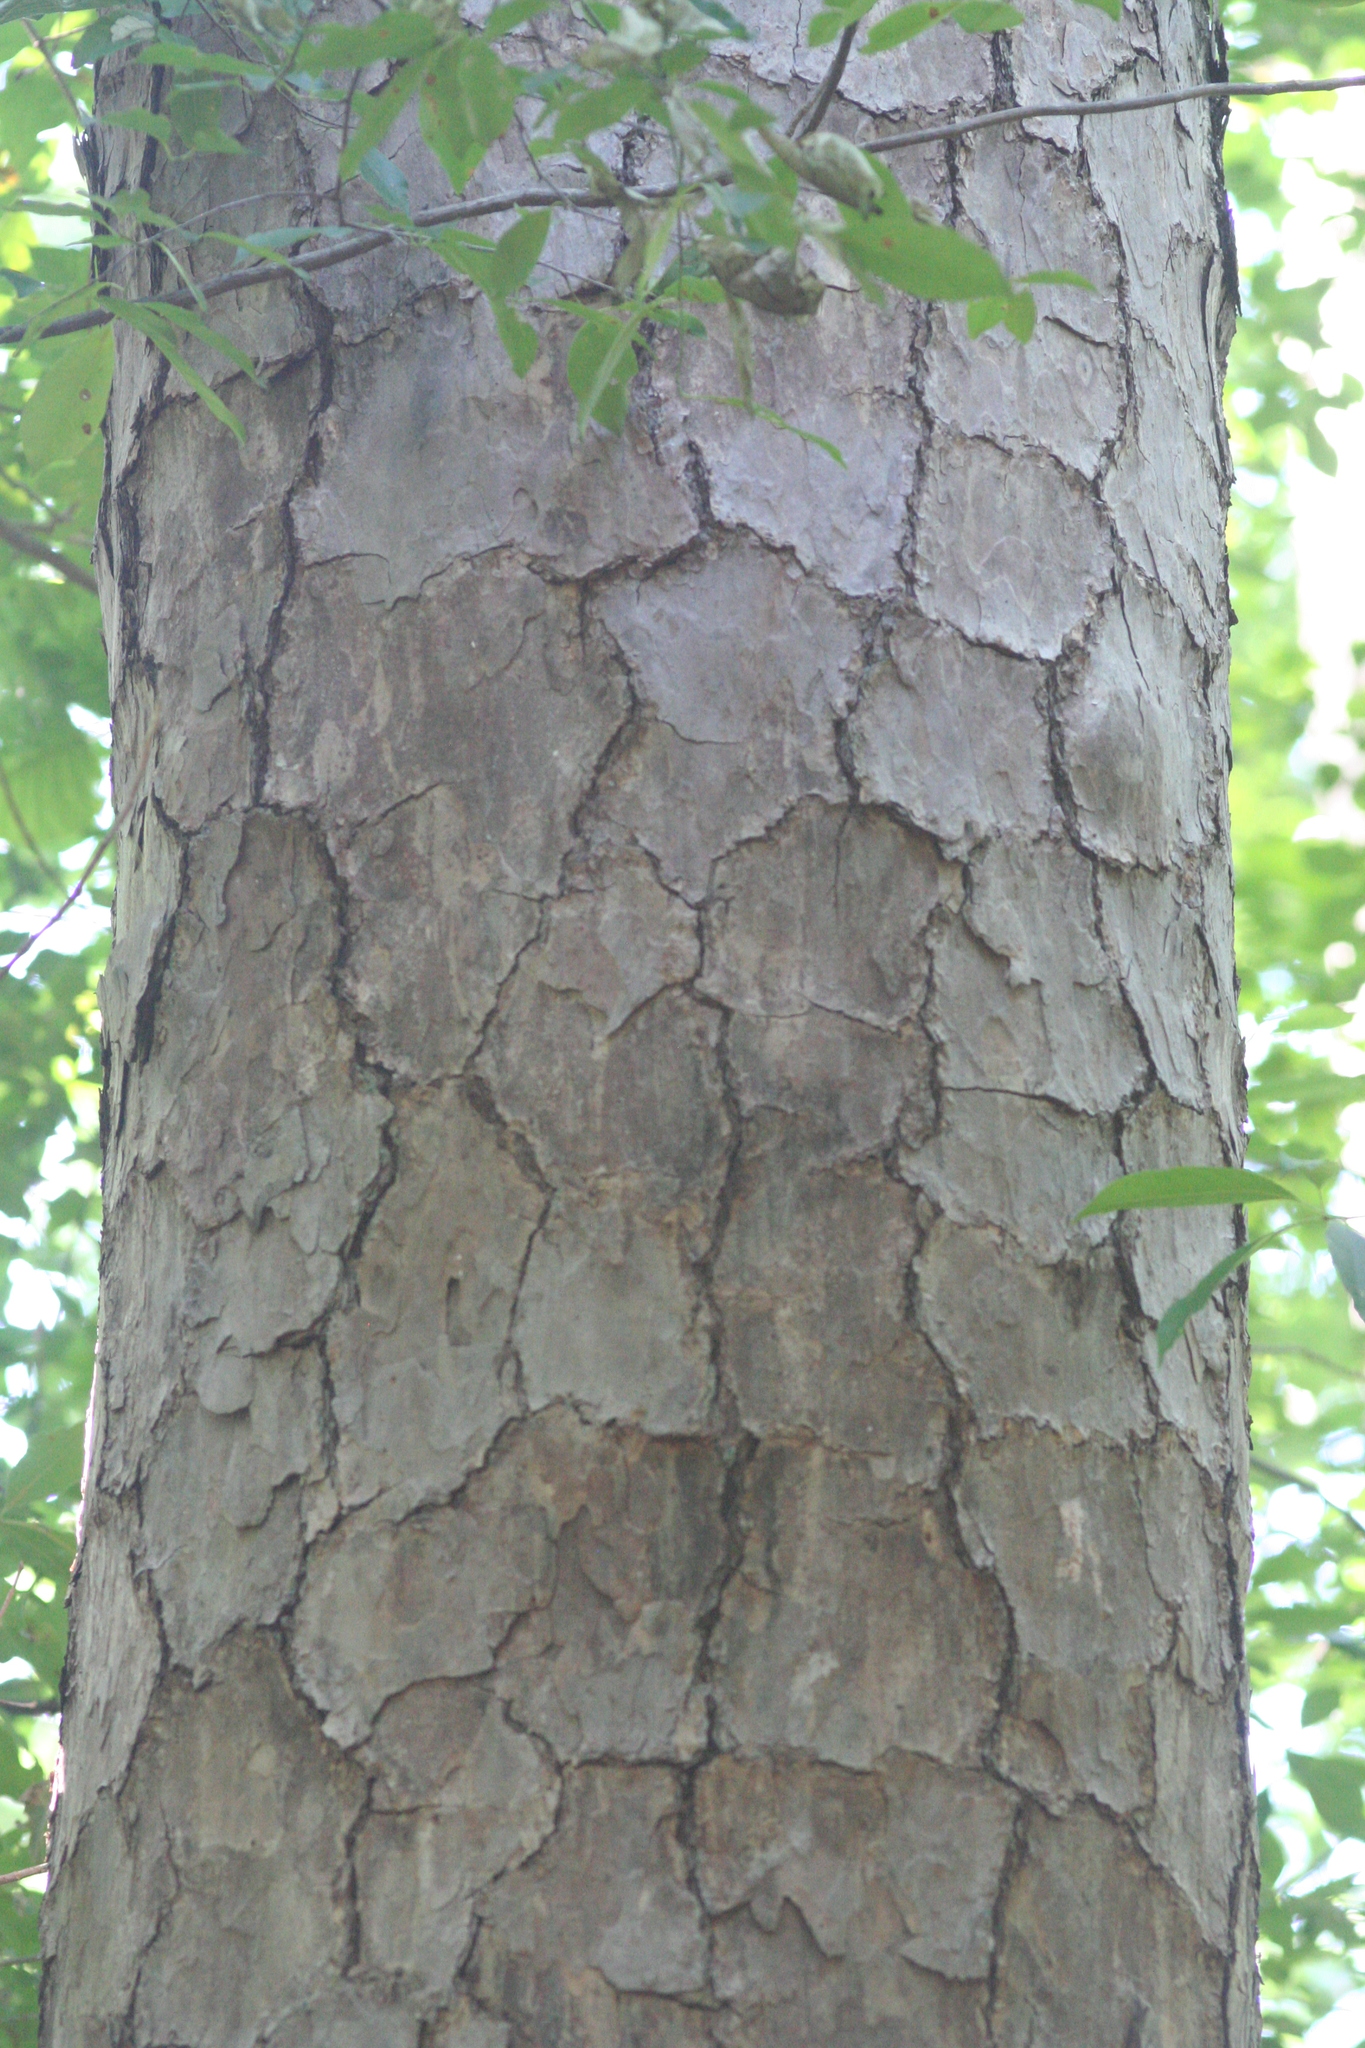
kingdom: Plantae
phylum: Tracheophyta
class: Pinopsida
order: Pinales
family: Pinaceae
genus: Pinus
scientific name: Pinus echinata
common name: Shortleaf pine
